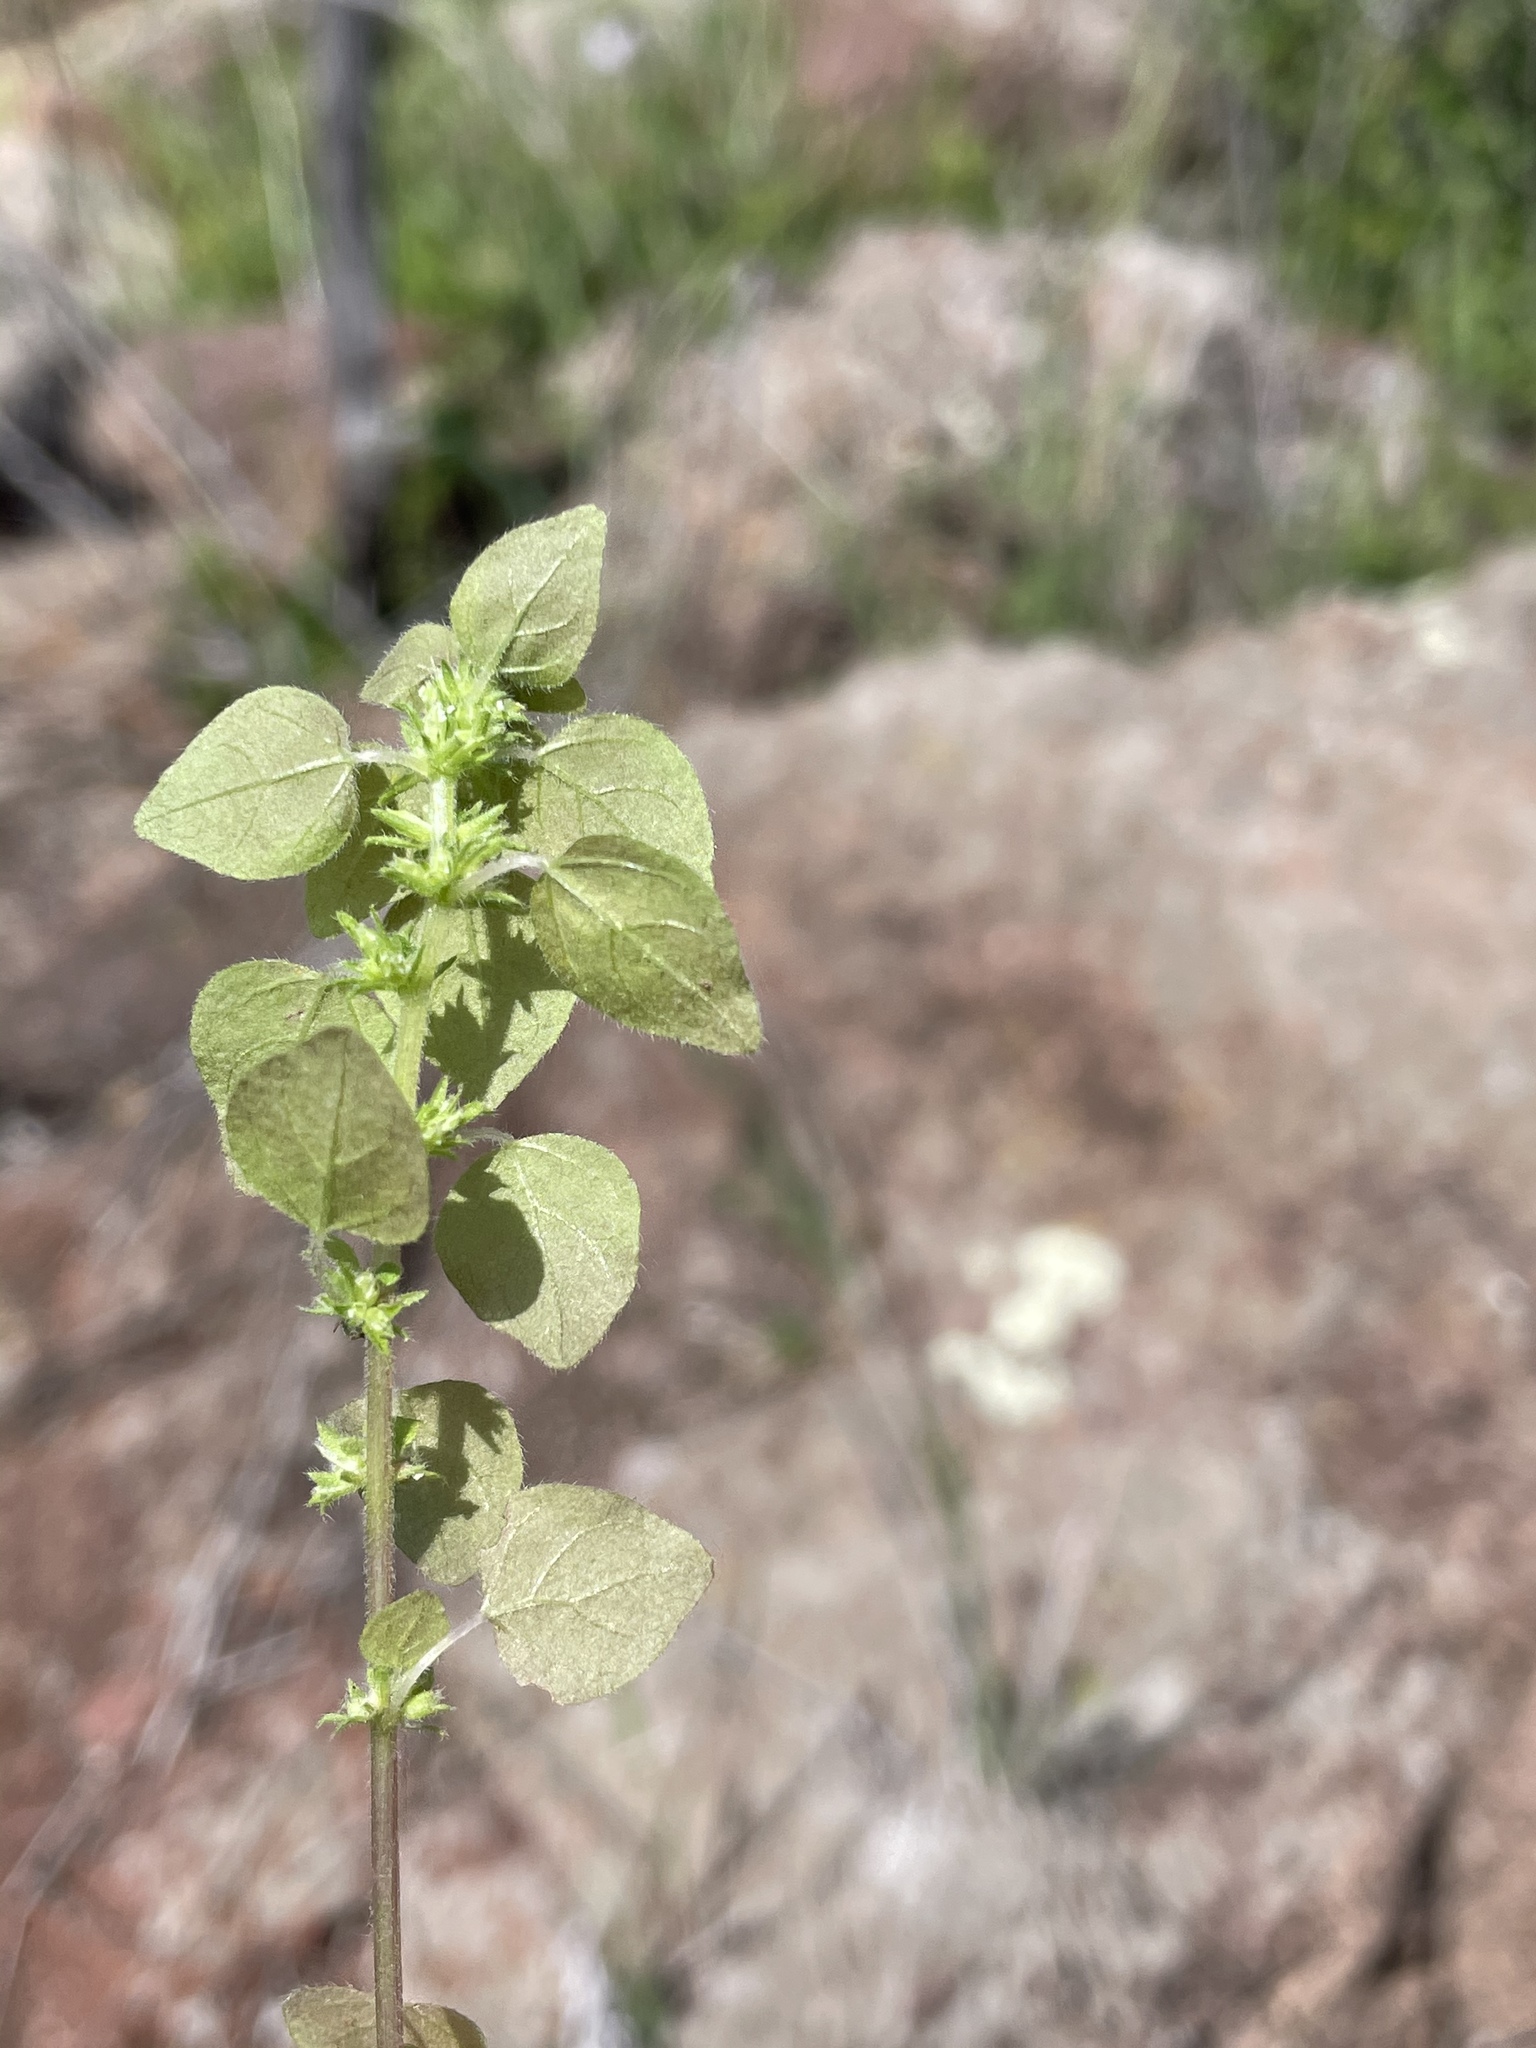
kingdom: Plantae
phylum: Tracheophyta
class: Magnoliopsida
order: Rosales
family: Urticaceae
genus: Parietaria
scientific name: Parietaria hespera
